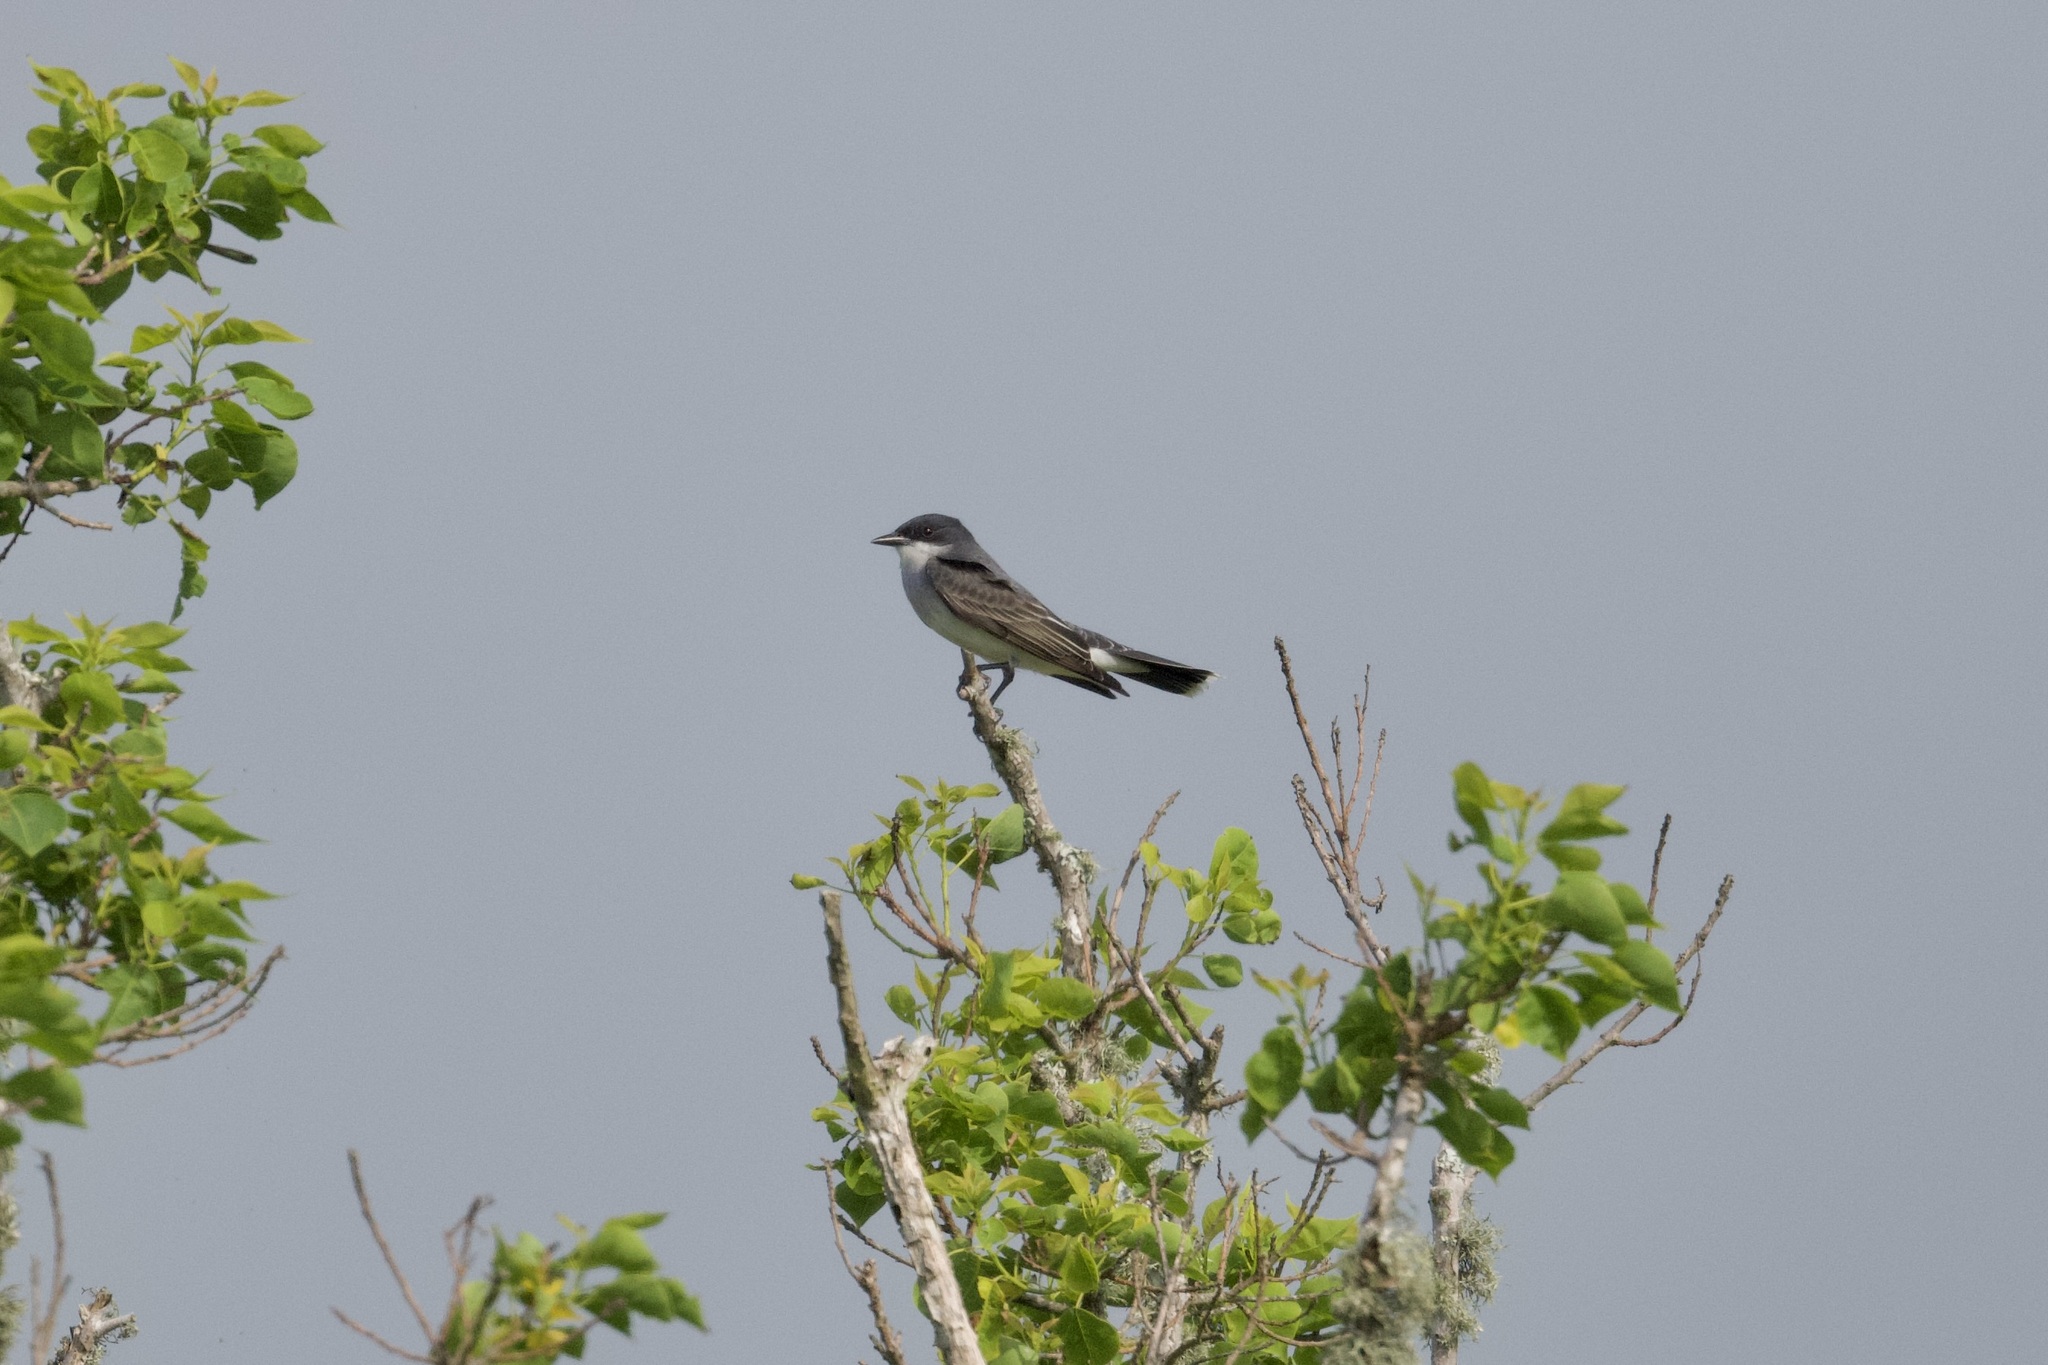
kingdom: Animalia
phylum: Chordata
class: Aves
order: Passeriformes
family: Tyrannidae
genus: Tyrannus
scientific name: Tyrannus tyrannus
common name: Eastern kingbird
